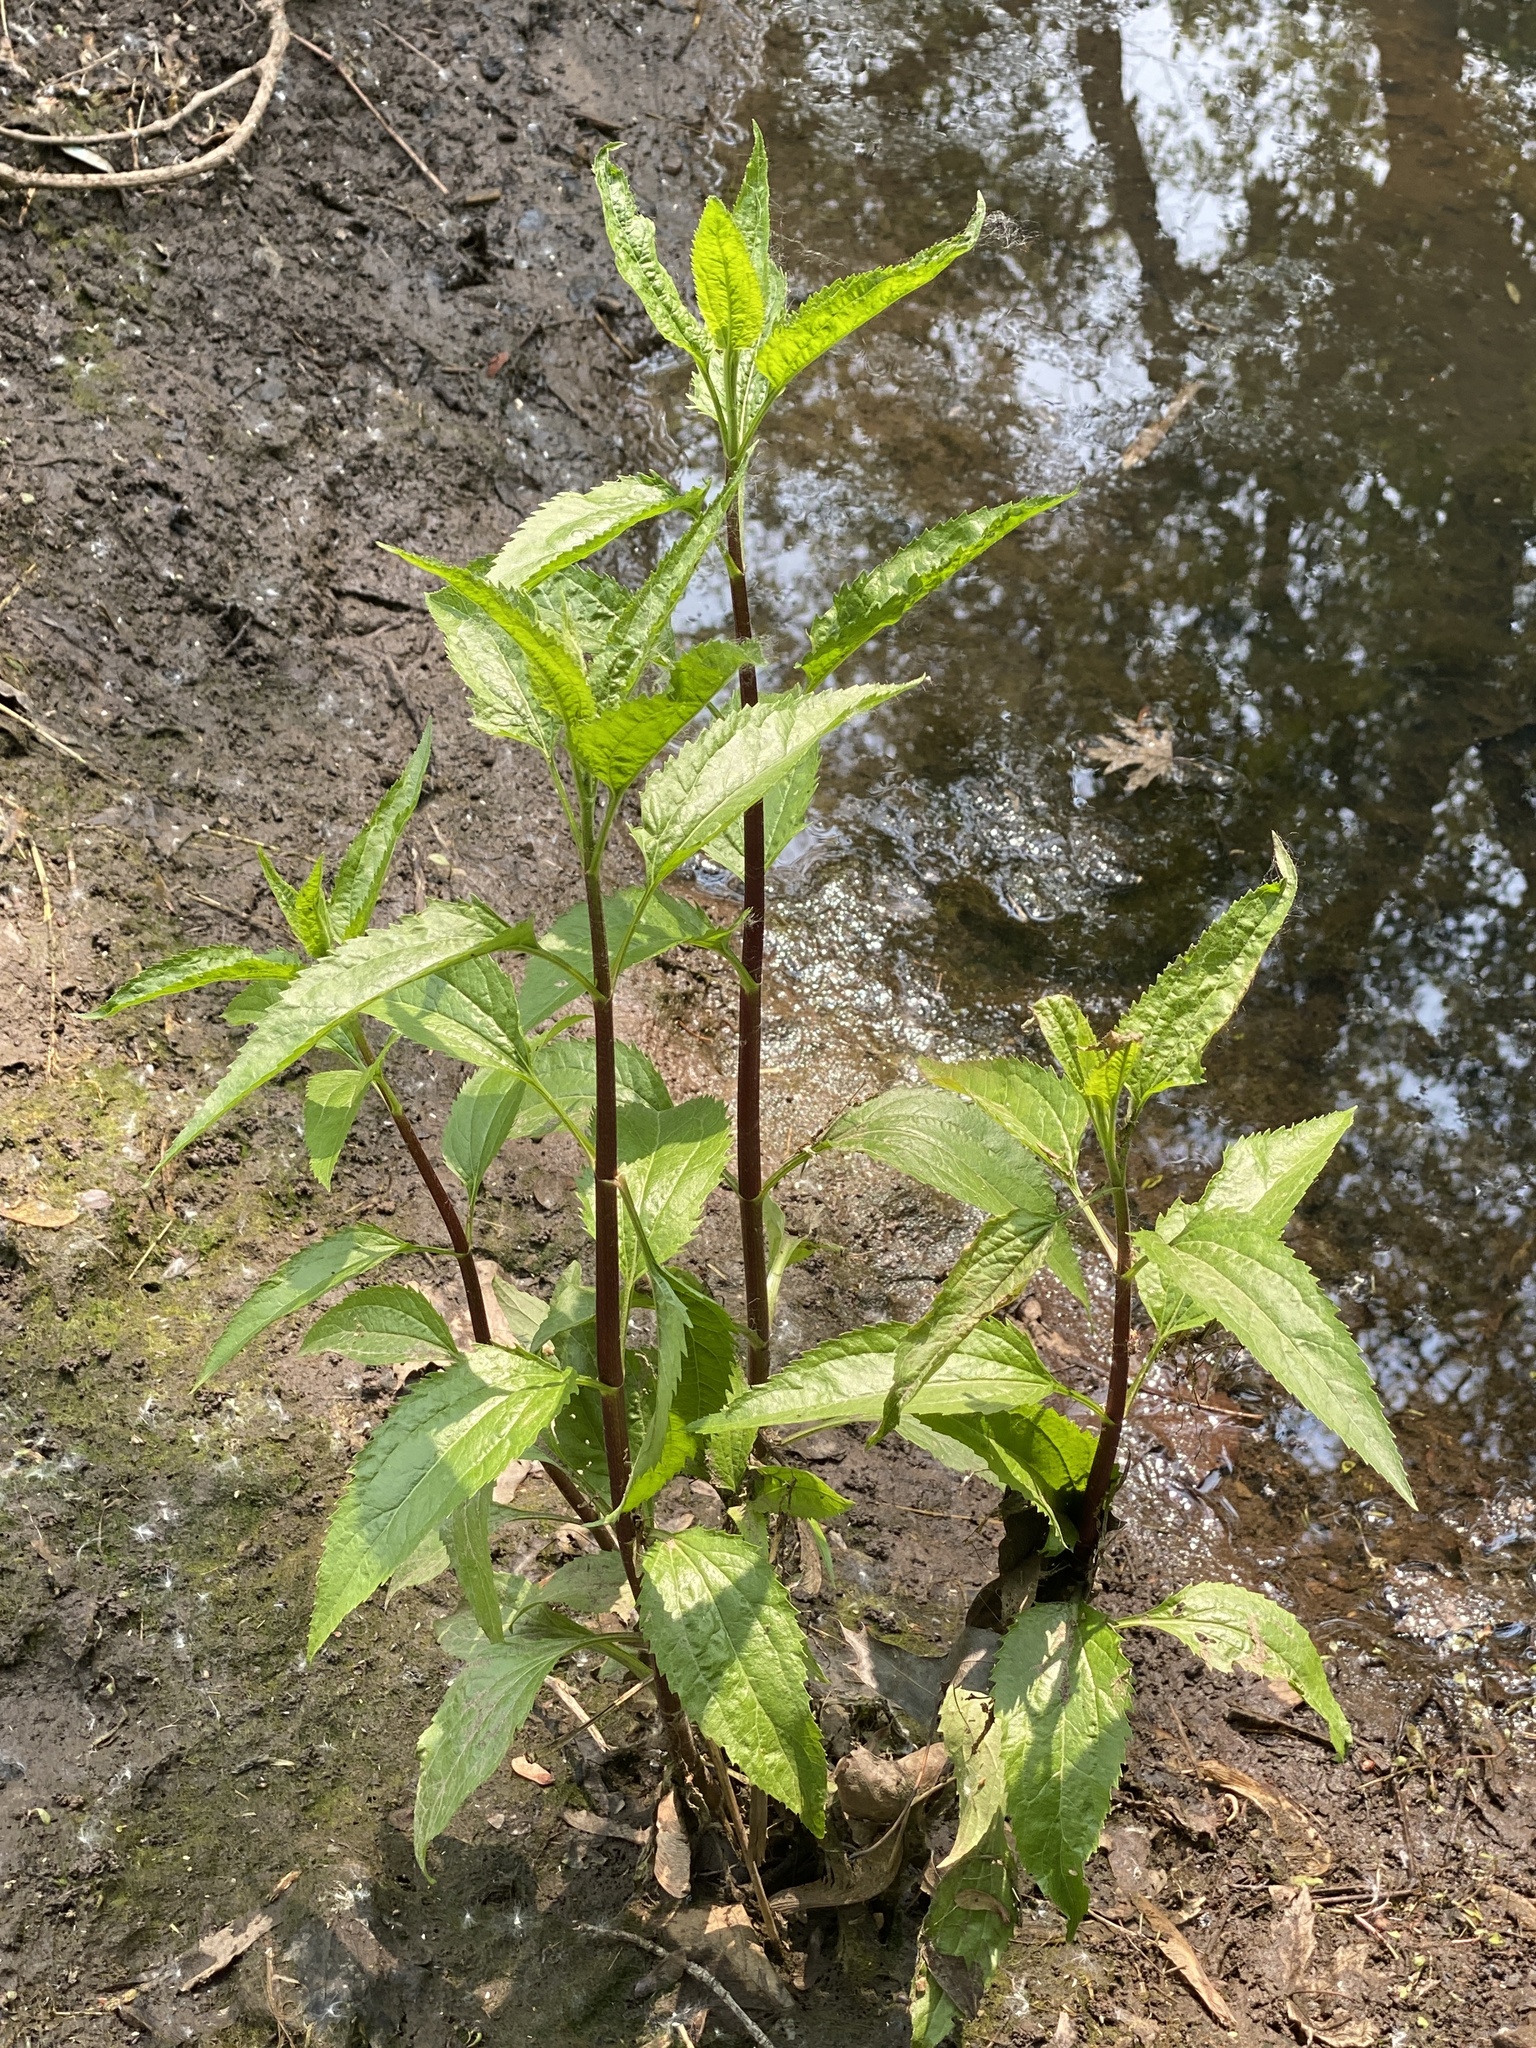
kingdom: Plantae
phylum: Tracheophyta
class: Magnoliopsida
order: Asterales
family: Asteraceae
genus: Eupatorium
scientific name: Eupatorium serotinum
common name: Late boneset
